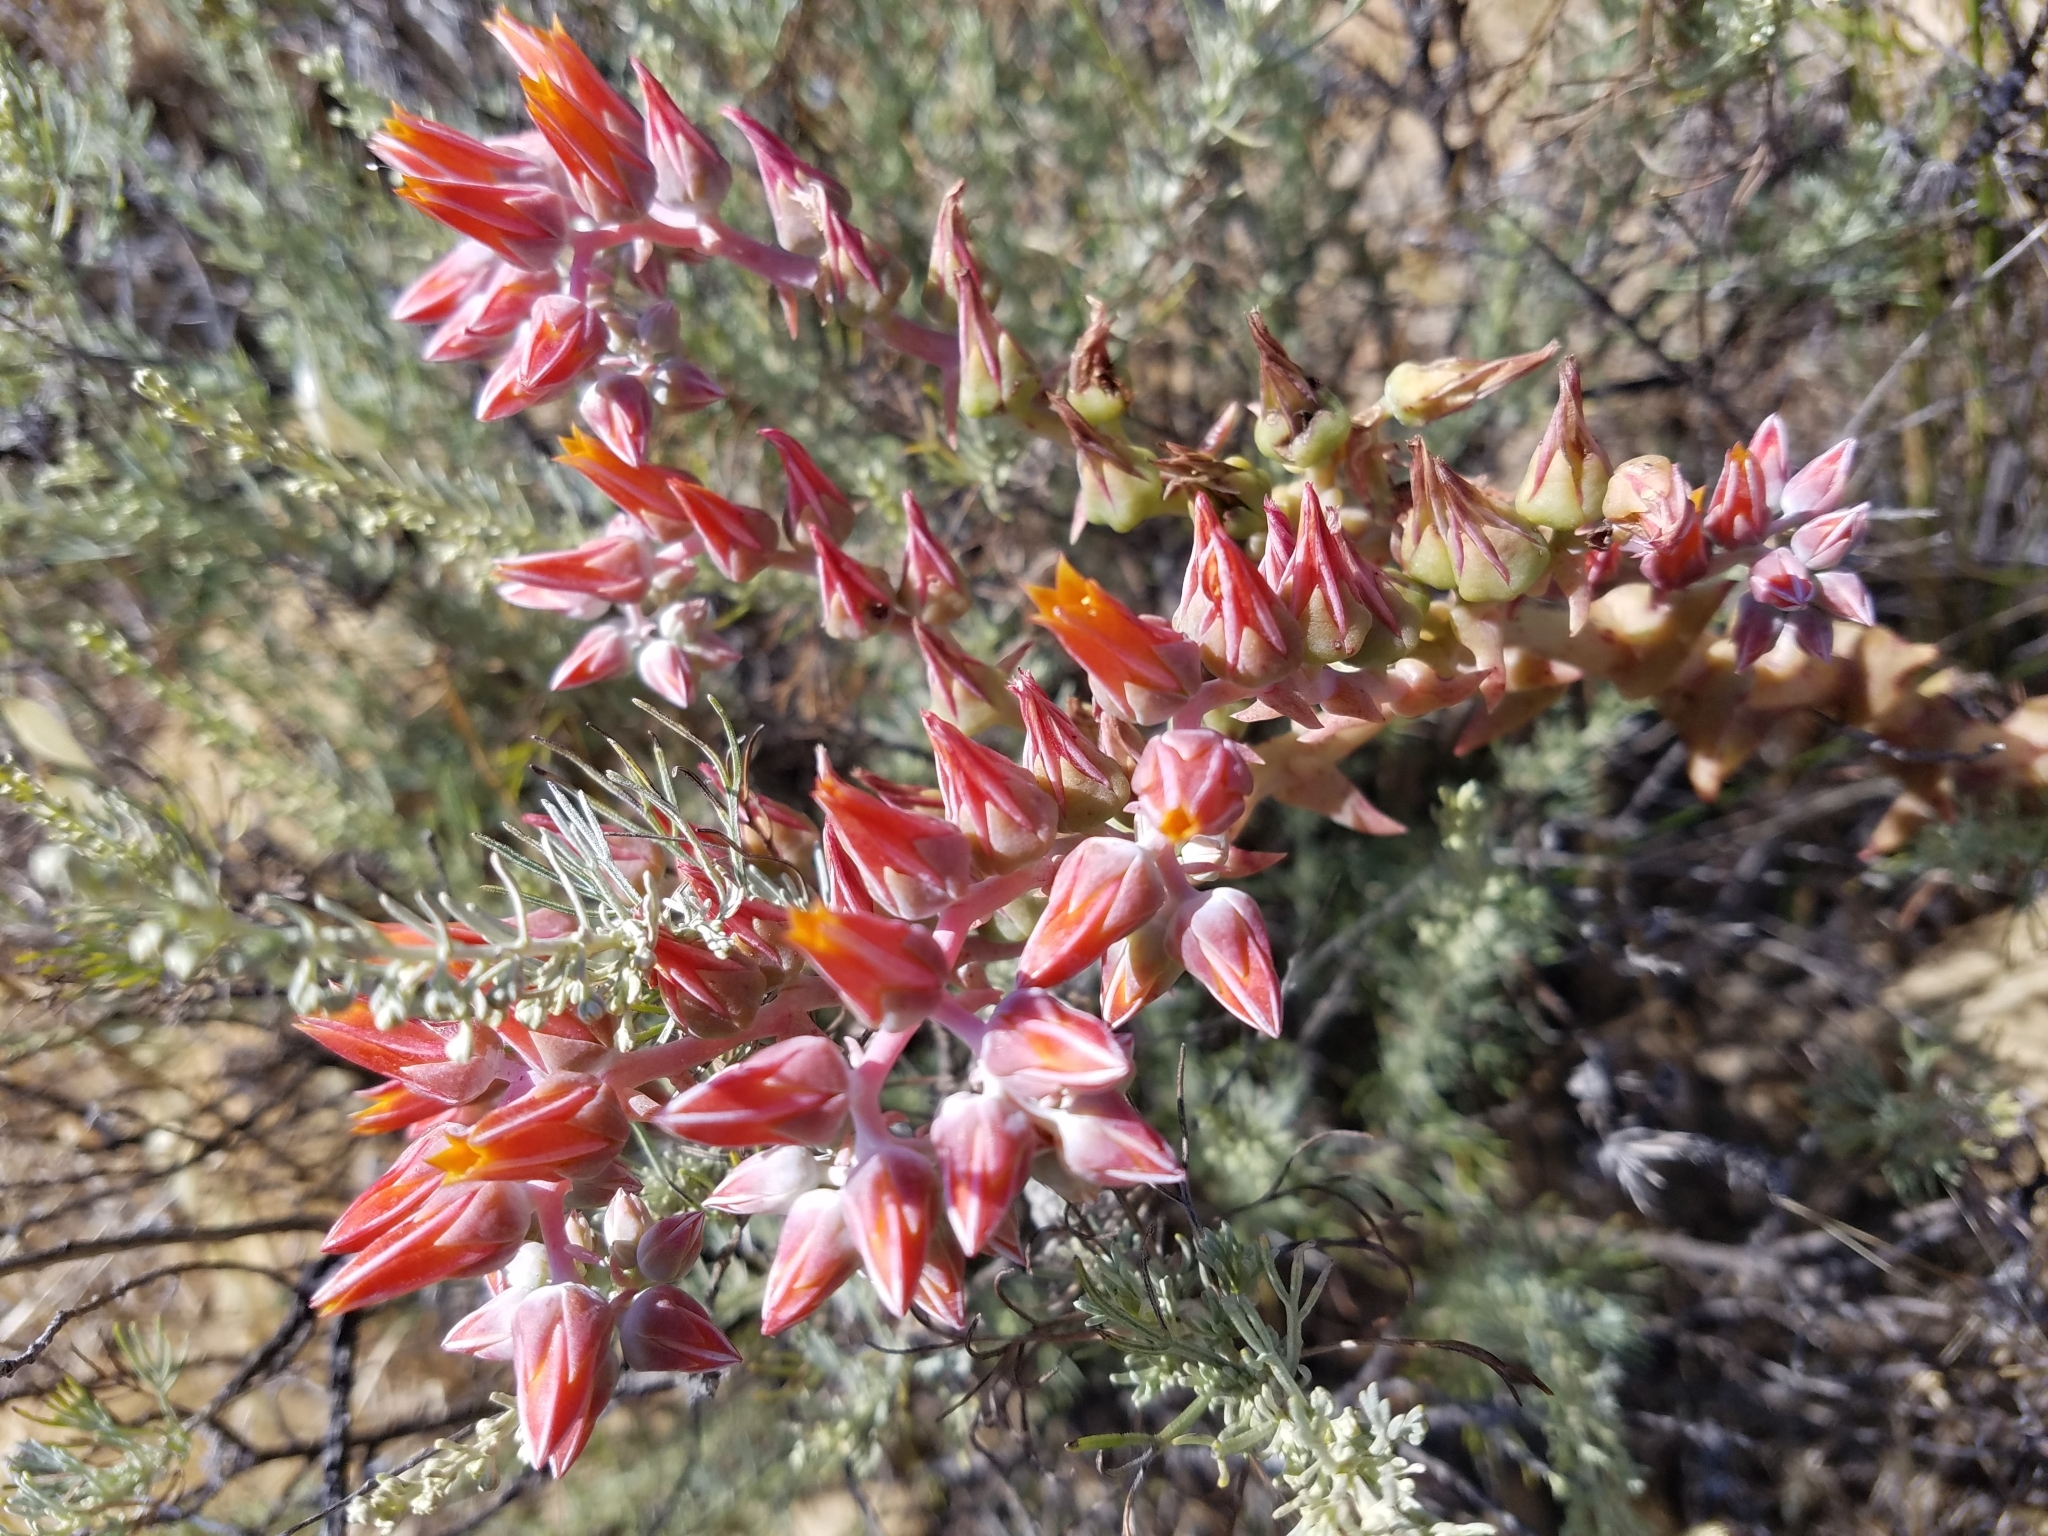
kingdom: Plantae
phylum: Tracheophyta
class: Magnoliopsida
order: Saxifragales
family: Crassulaceae
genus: Dudleya
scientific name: Dudleya lanceolata
